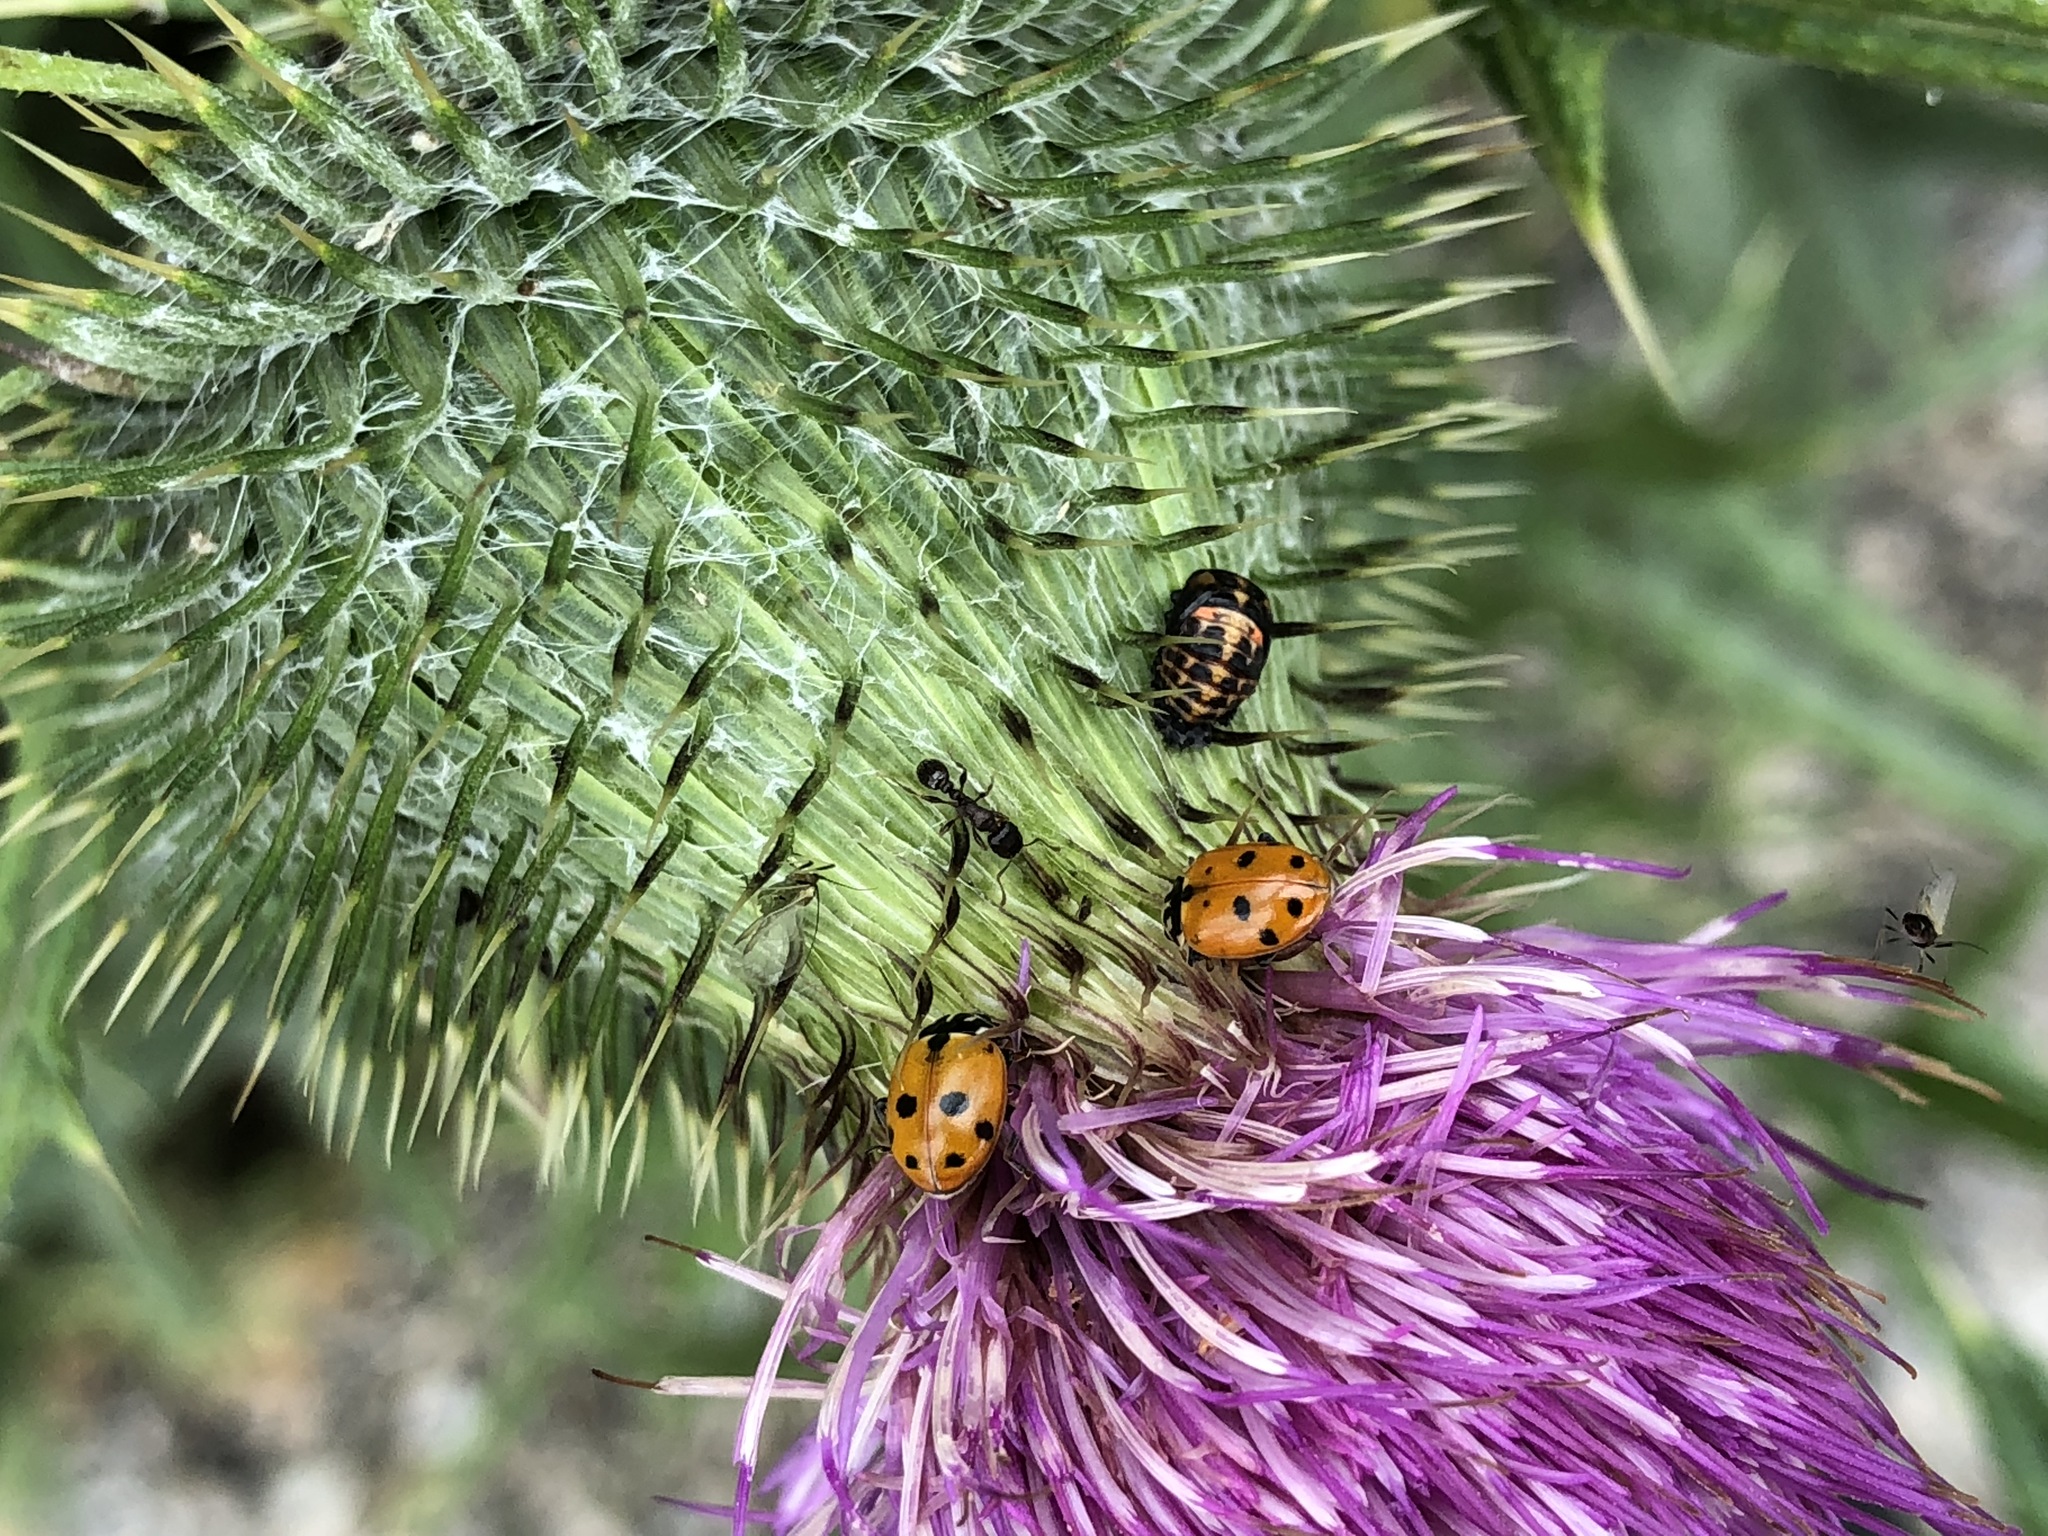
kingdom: Animalia
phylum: Arthropoda
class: Insecta
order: Coleoptera
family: Coccinellidae
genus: Hippodamia
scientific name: Hippodamia variegata
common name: Ladybird beetle
